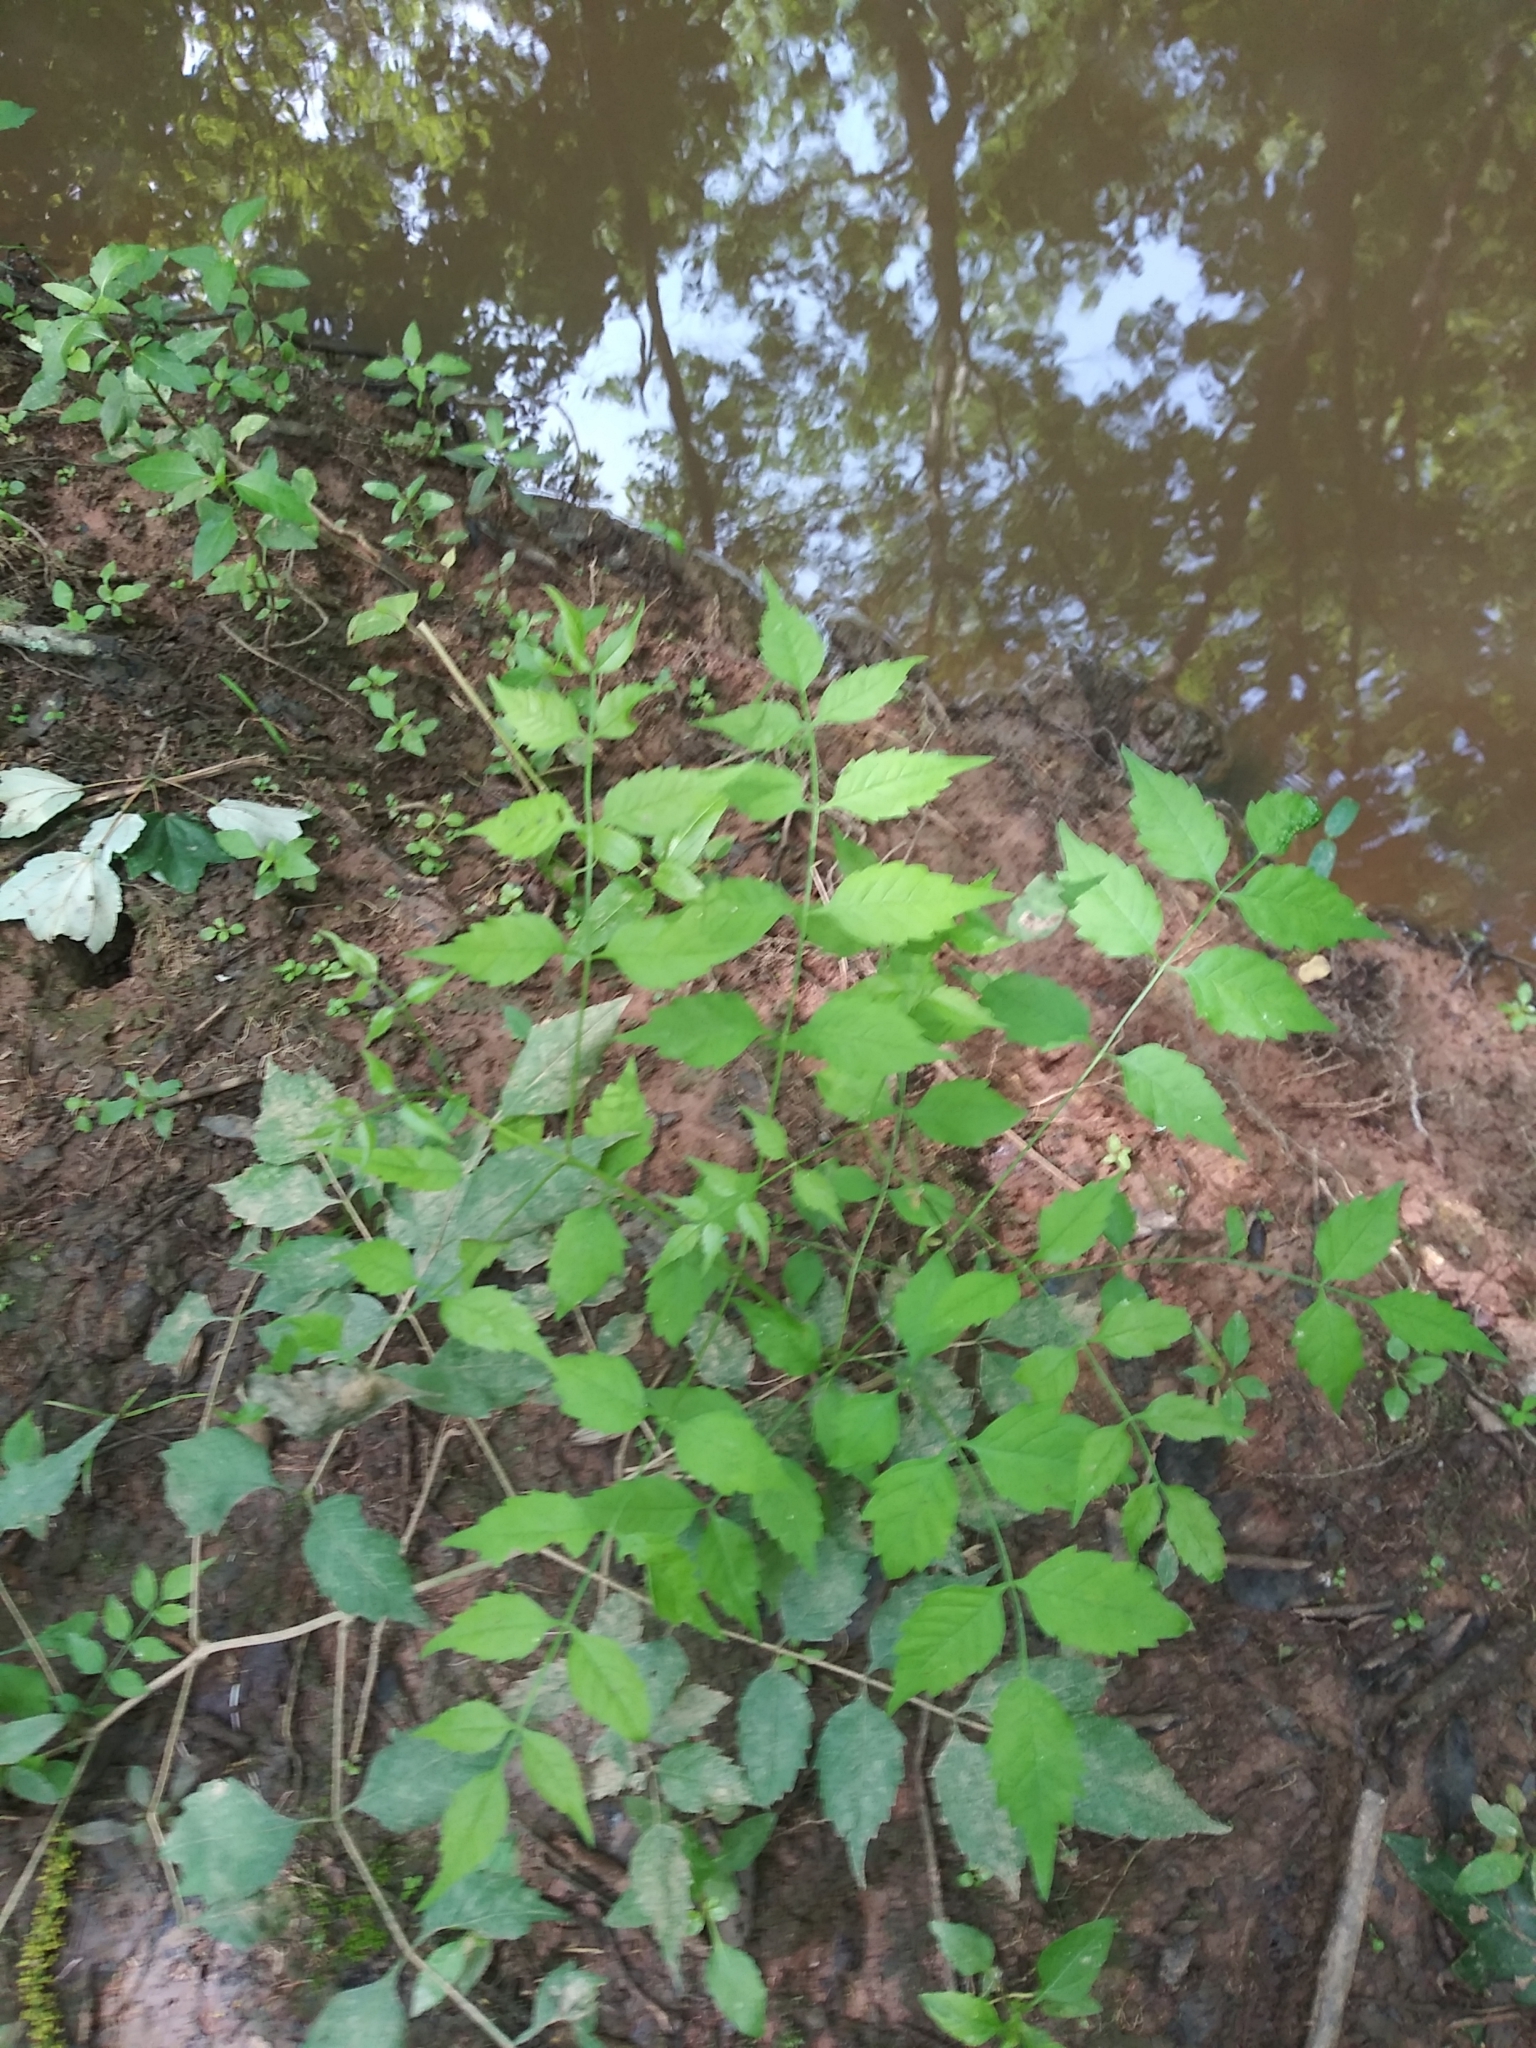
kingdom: Plantae
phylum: Tracheophyta
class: Magnoliopsida
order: Lamiales
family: Bignoniaceae
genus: Campsis
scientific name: Campsis radicans
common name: Trumpet-creeper
